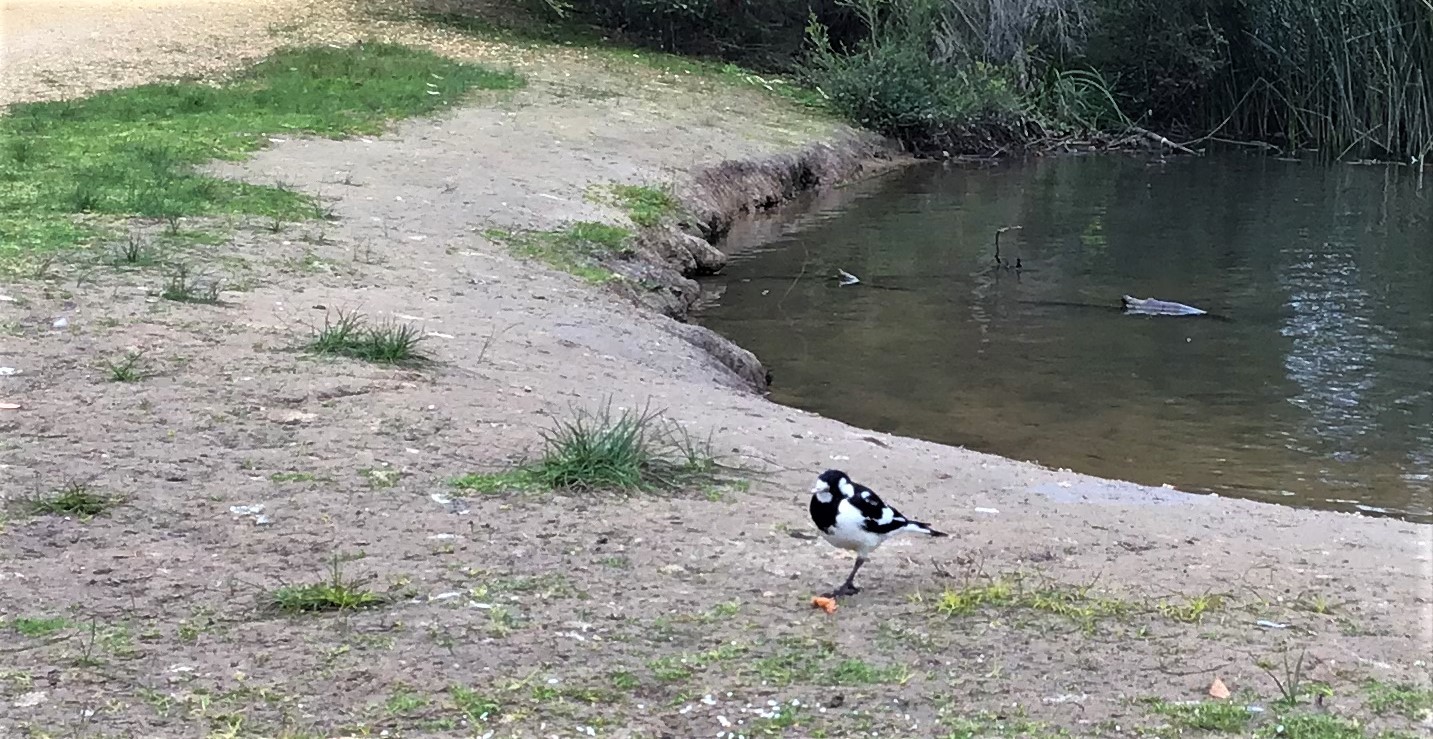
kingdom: Animalia
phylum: Chordata
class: Aves
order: Passeriformes
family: Monarchidae
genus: Grallina
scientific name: Grallina cyanoleuca
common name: Magpie-lark
